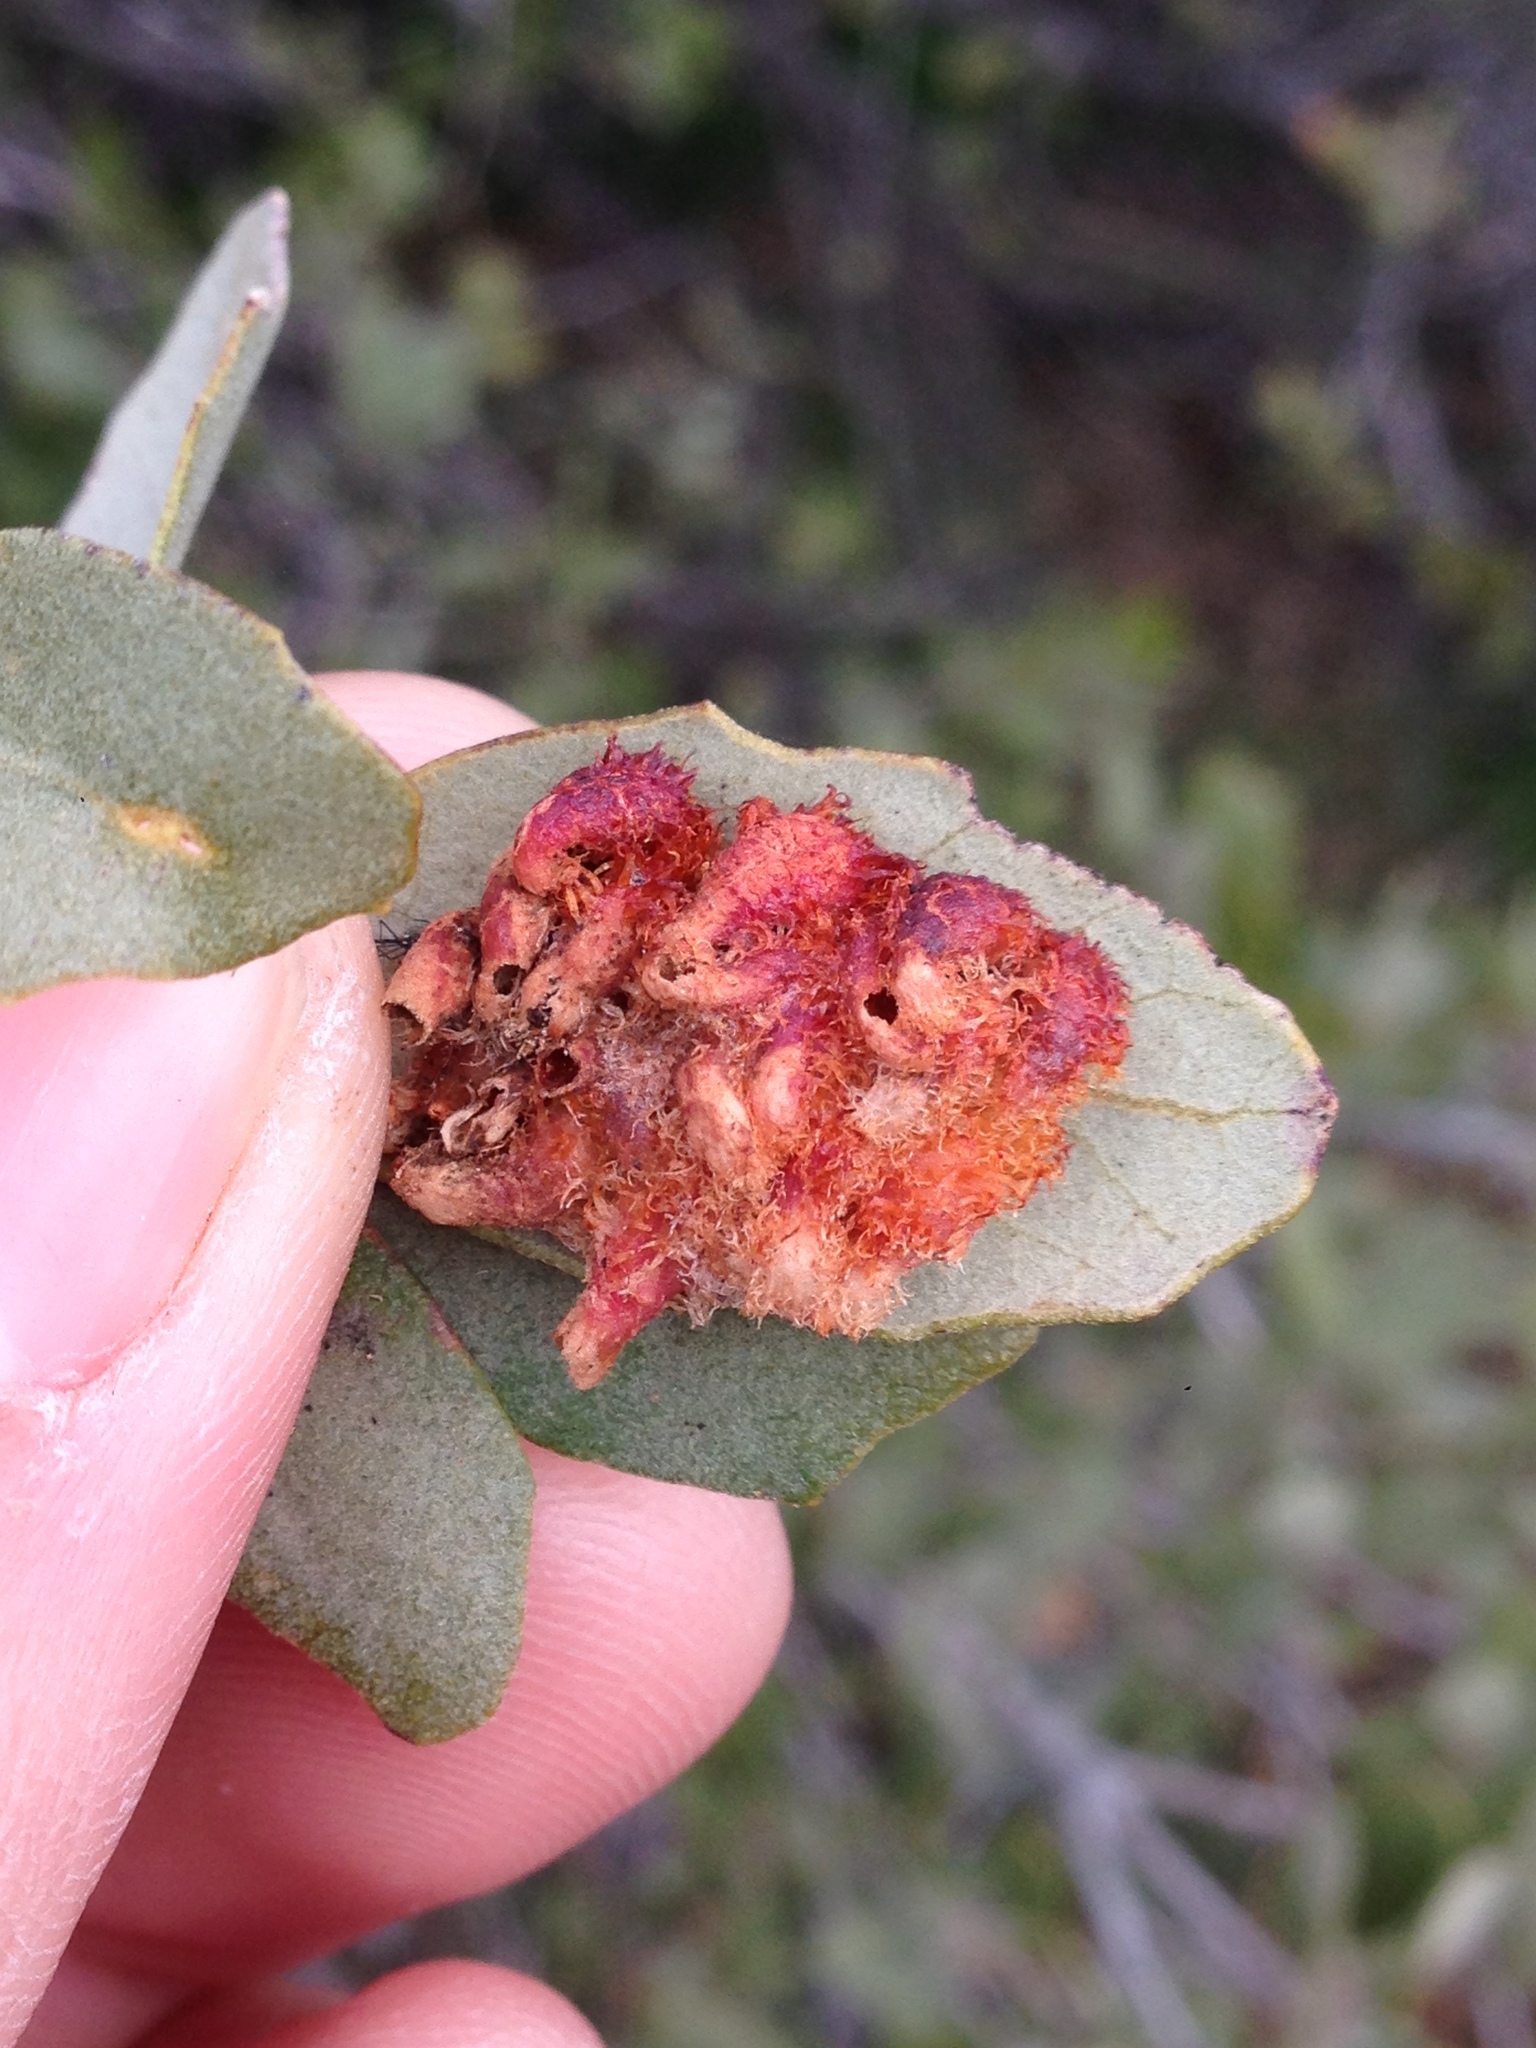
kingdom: Animalia
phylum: Arthropoda
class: Insecta
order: Hymenoptera
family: Cynipidae
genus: Andricus
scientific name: Andricus
